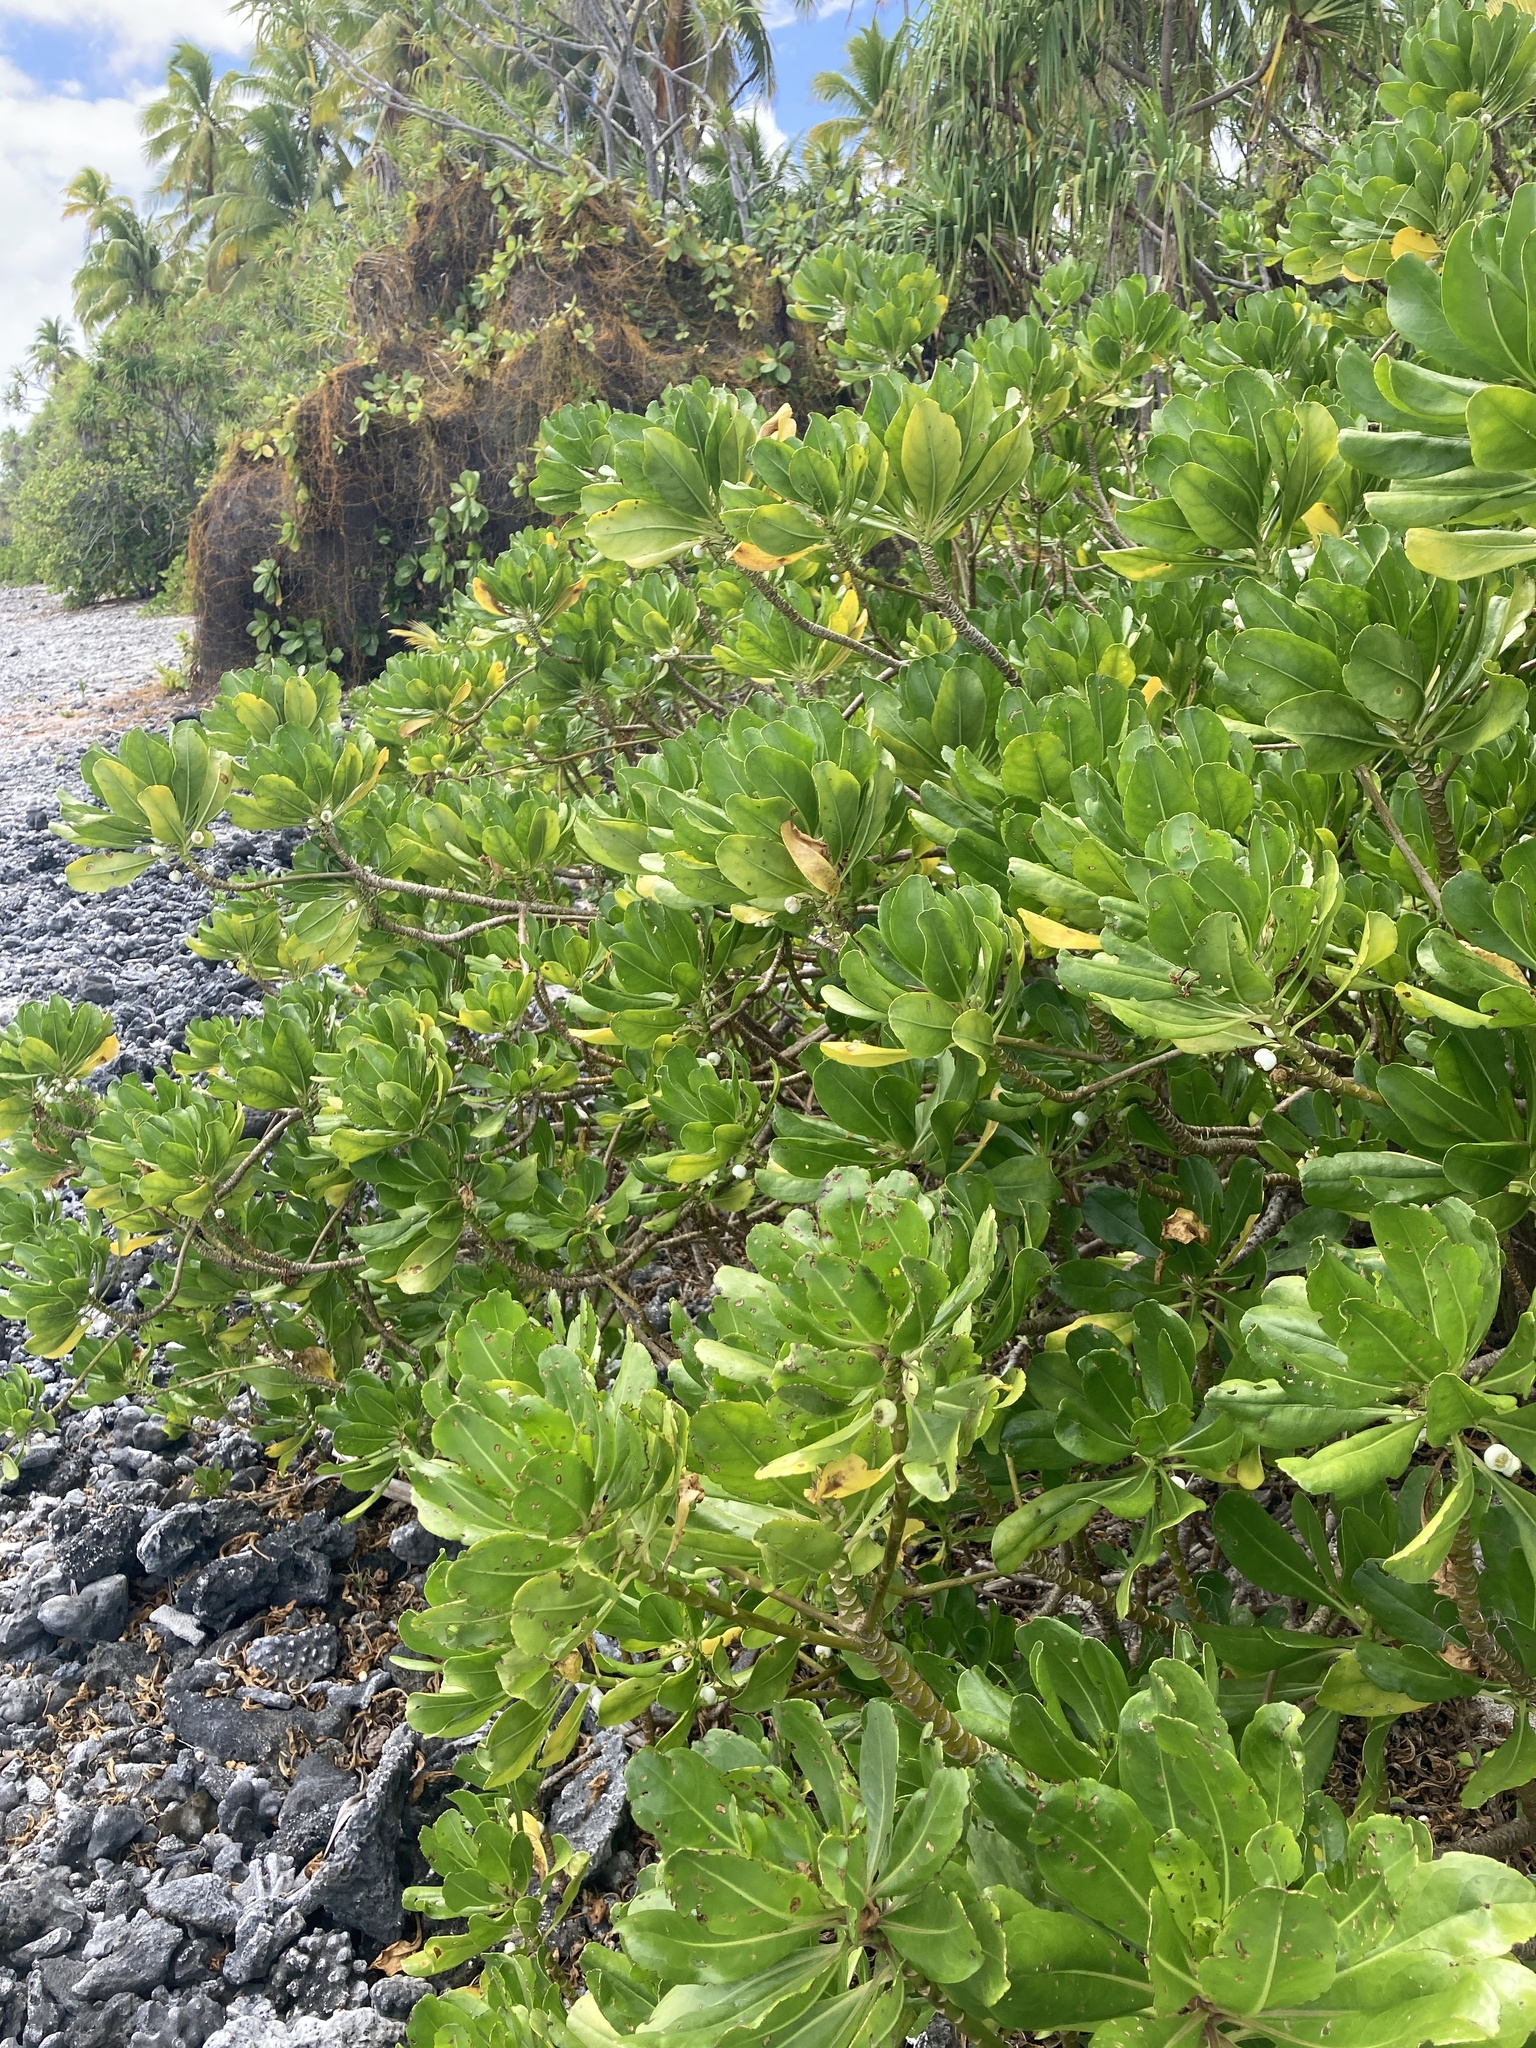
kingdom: Plantae
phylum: Tracheophyta
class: Magnoliopsida
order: Asterales
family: Goodeniaceae
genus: Scaevola
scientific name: Scaevola taccada
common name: Sea lettucetree
